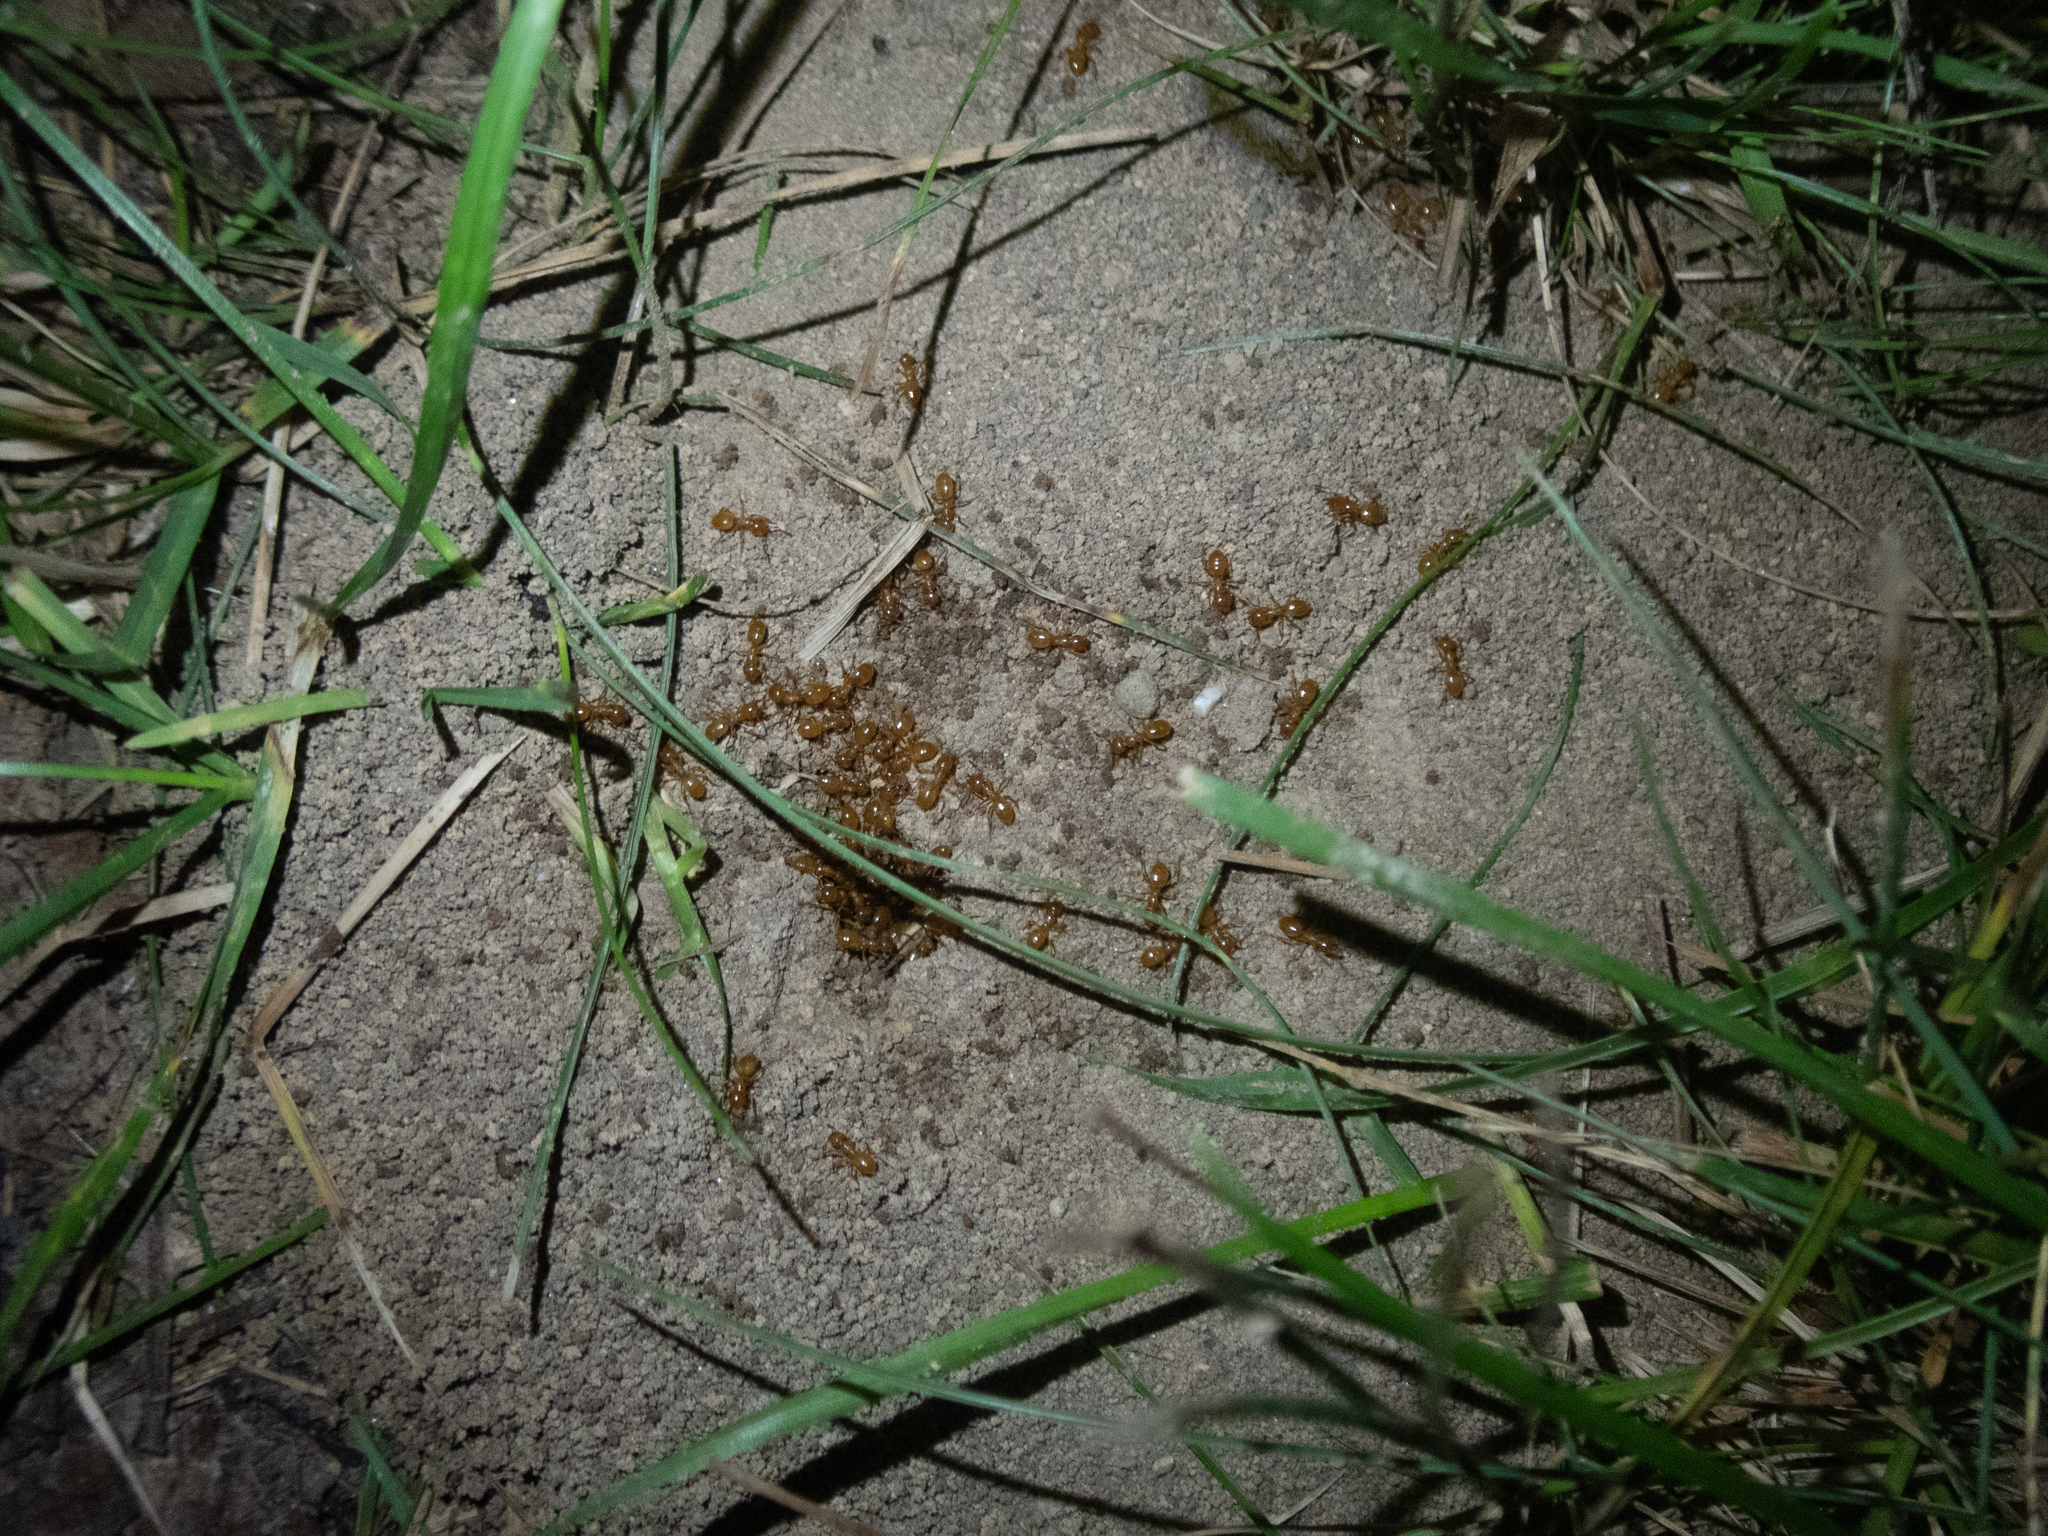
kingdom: Animalia
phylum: Arthropoda
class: Insecta
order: Hymenoptera
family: Formicidae
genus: Lasius
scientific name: Lasius claviger
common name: Common citronella ant
